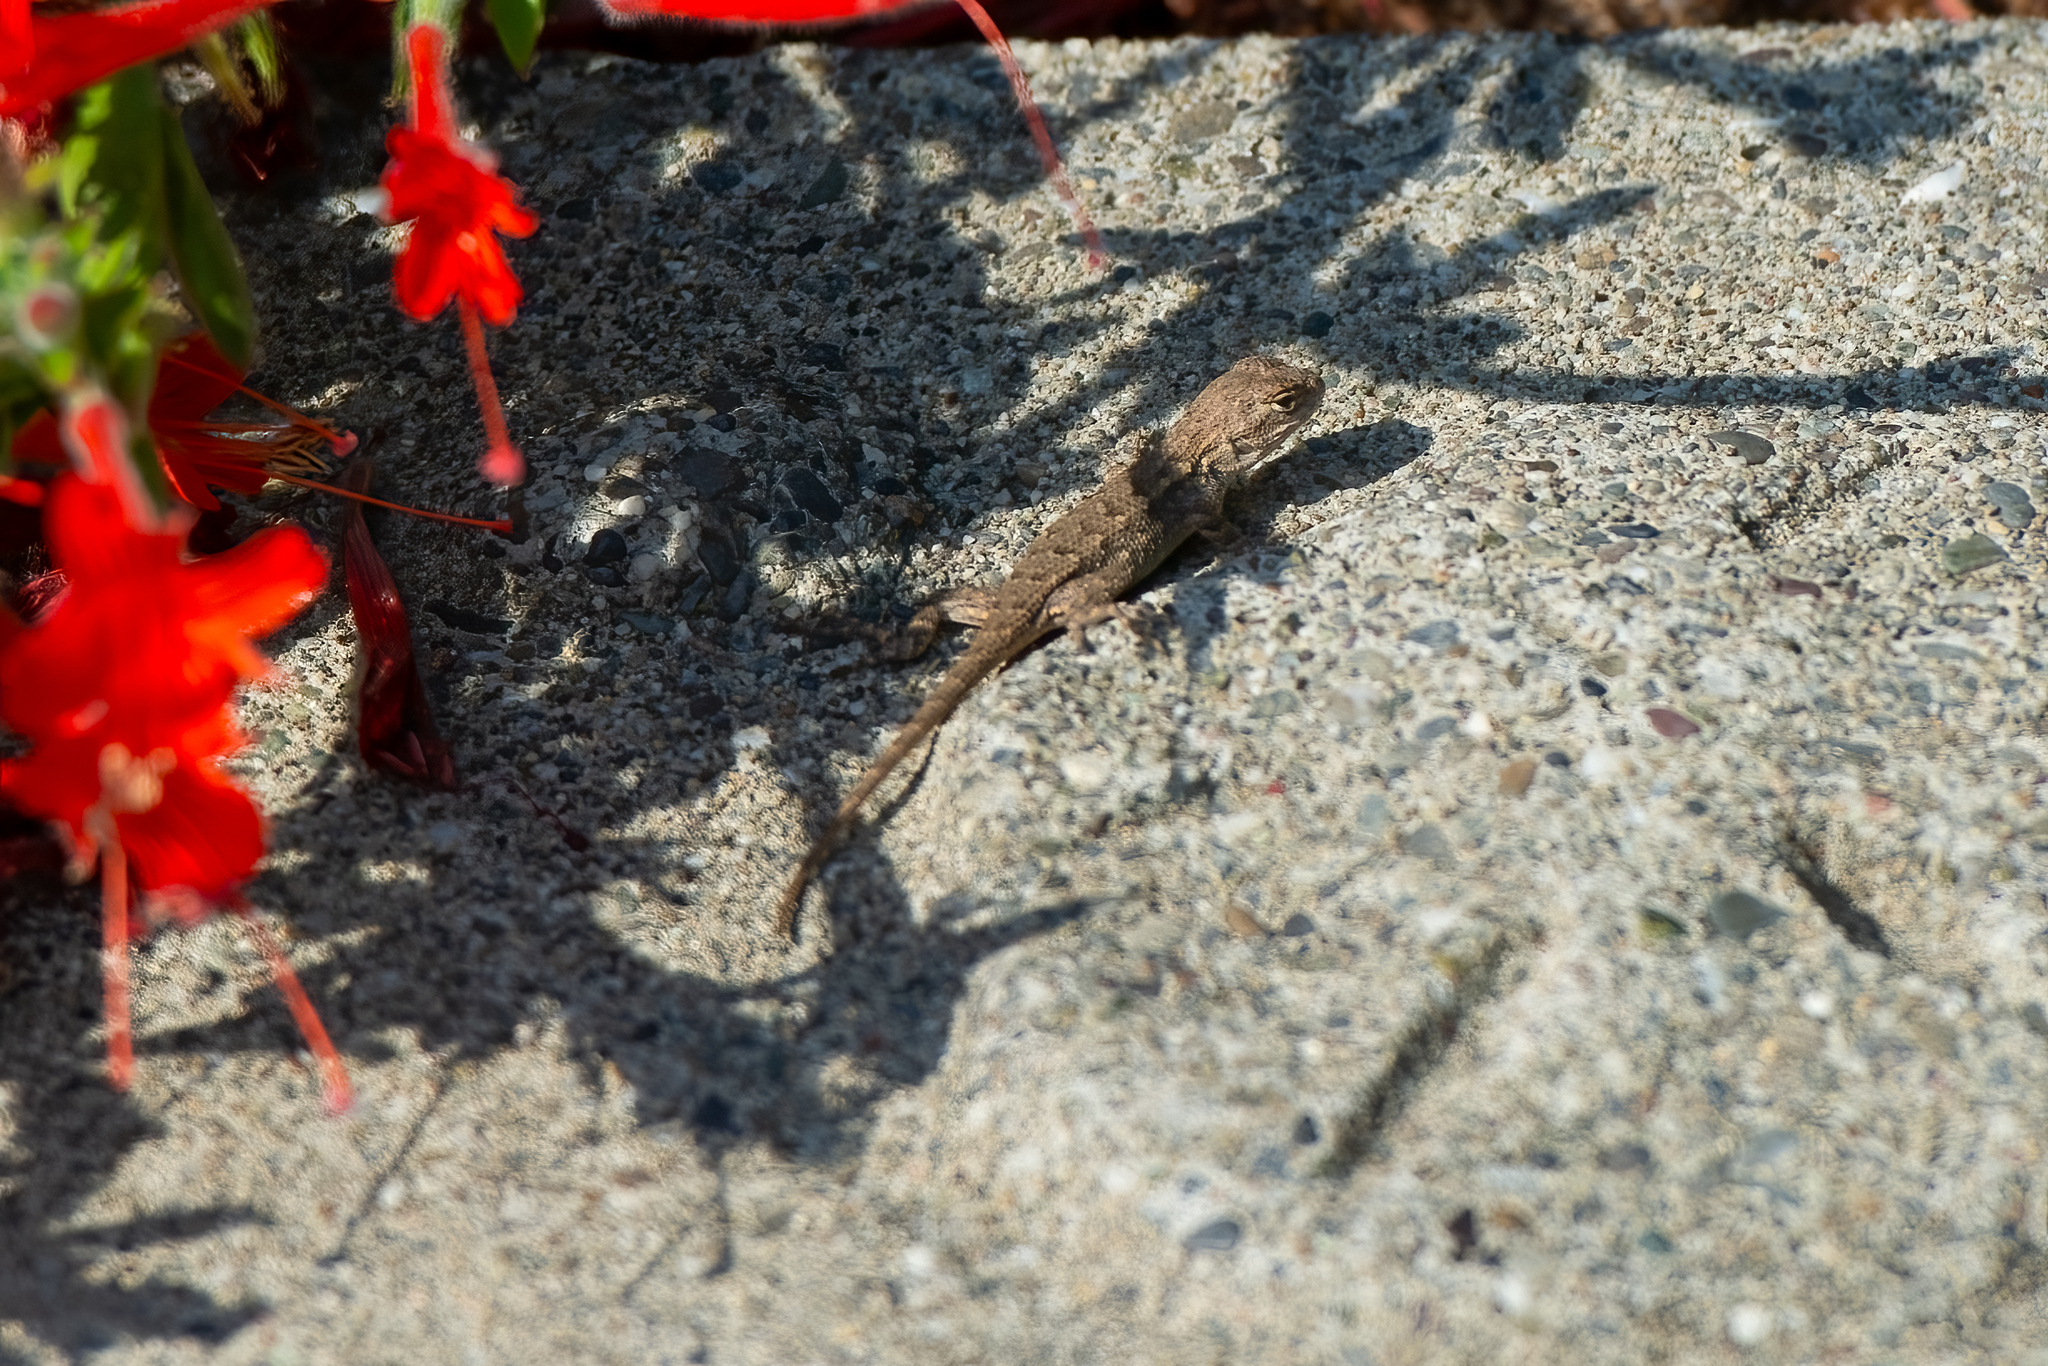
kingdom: Animalia
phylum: Chordata
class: Squamata
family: Phrynosomatidae
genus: Sceloporus
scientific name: Sceloporus occidentalis
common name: Western fence lizard
